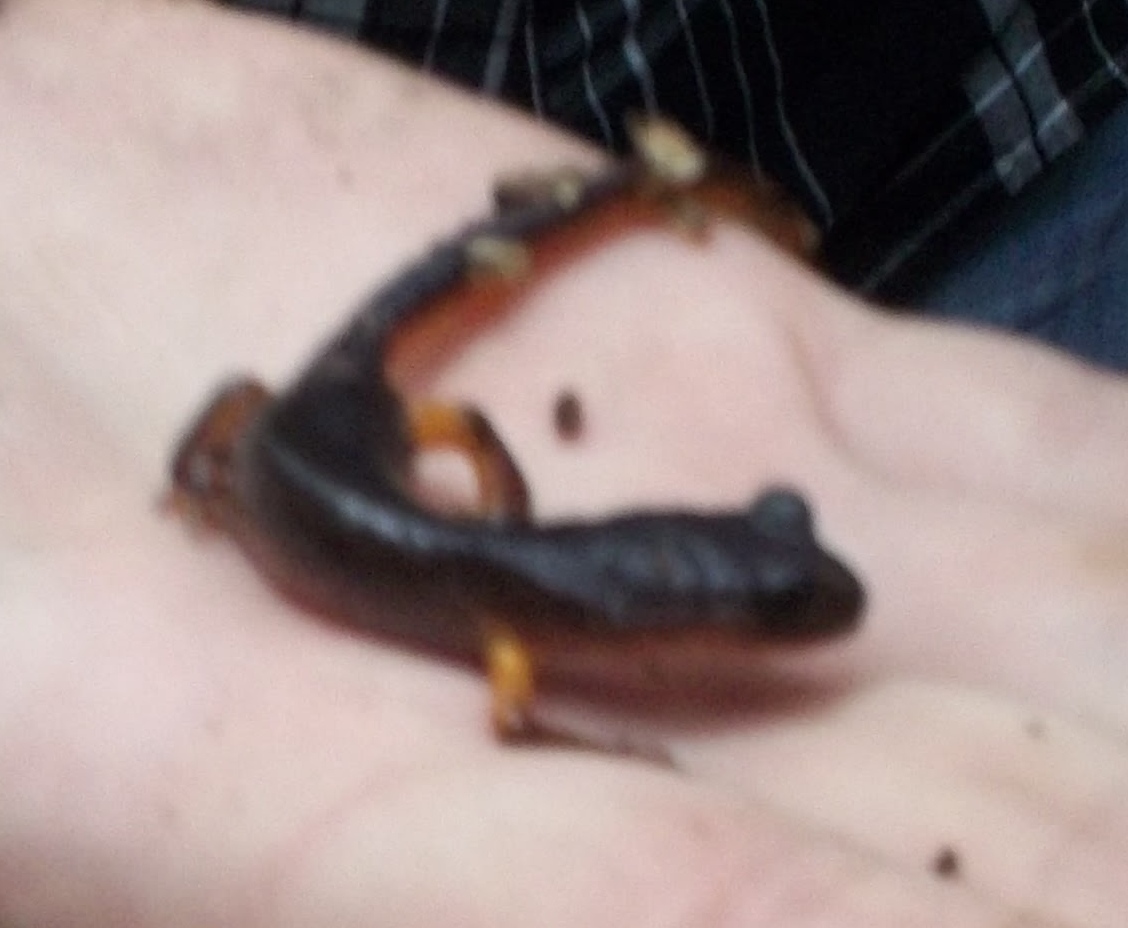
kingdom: Animalia
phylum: Chordata
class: Amphibia
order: Caudata
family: Plethodontidae
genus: Ensatina
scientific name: Ensatina eschscholtzii
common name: Ensatina
